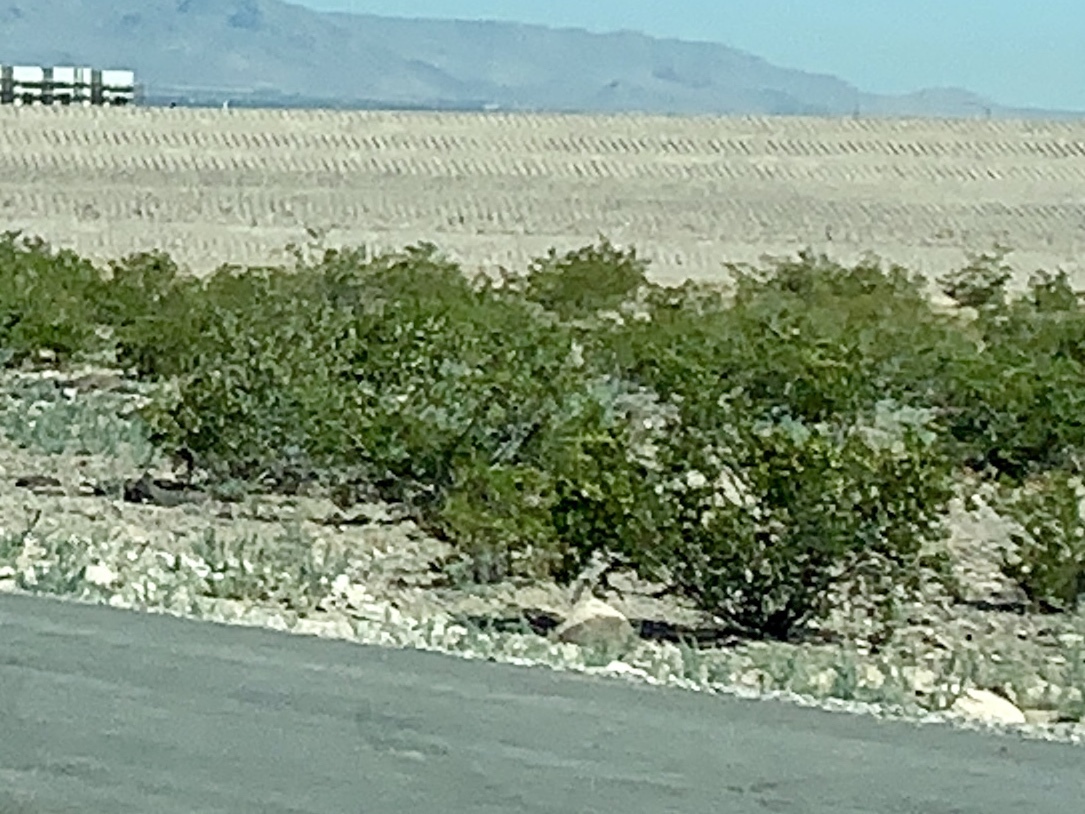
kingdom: Plantae
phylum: Tracheophyta
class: Magnoliopsida
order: Zygophyllales
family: Zygophyllaceae
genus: Larrea
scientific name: Larrea tridentata
